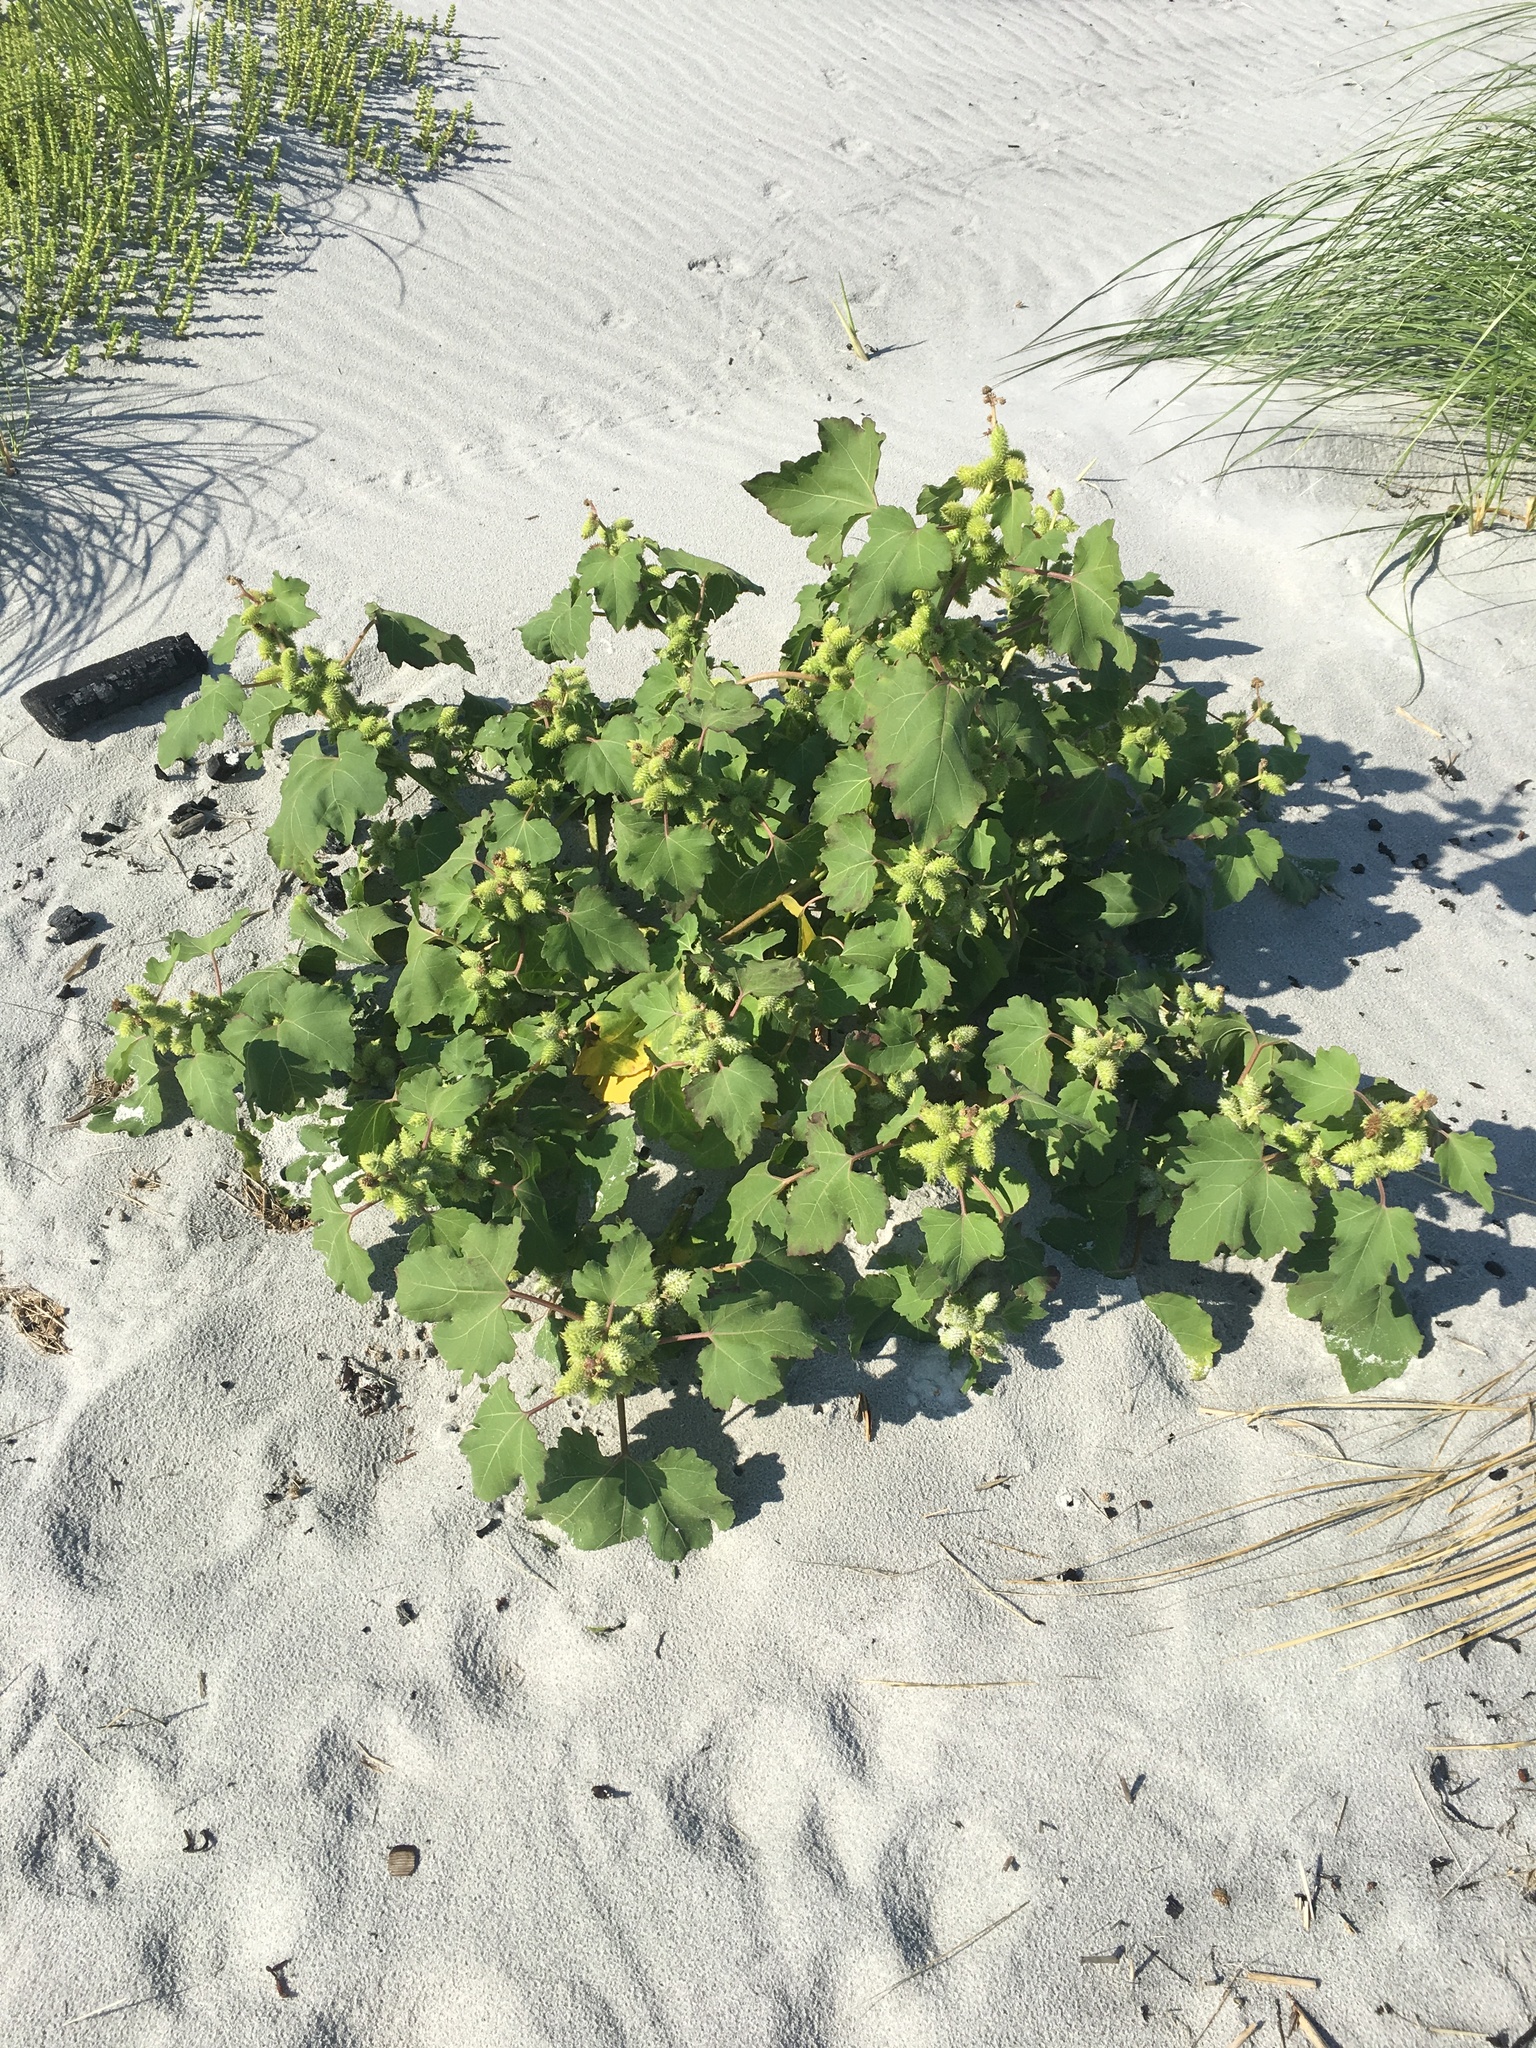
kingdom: Plantae
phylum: Tracheophyta
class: Magnoliopsida
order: Asterales
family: Asteraceae
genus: Xanthium
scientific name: Xanthium strumarium
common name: Rough cocklebur
